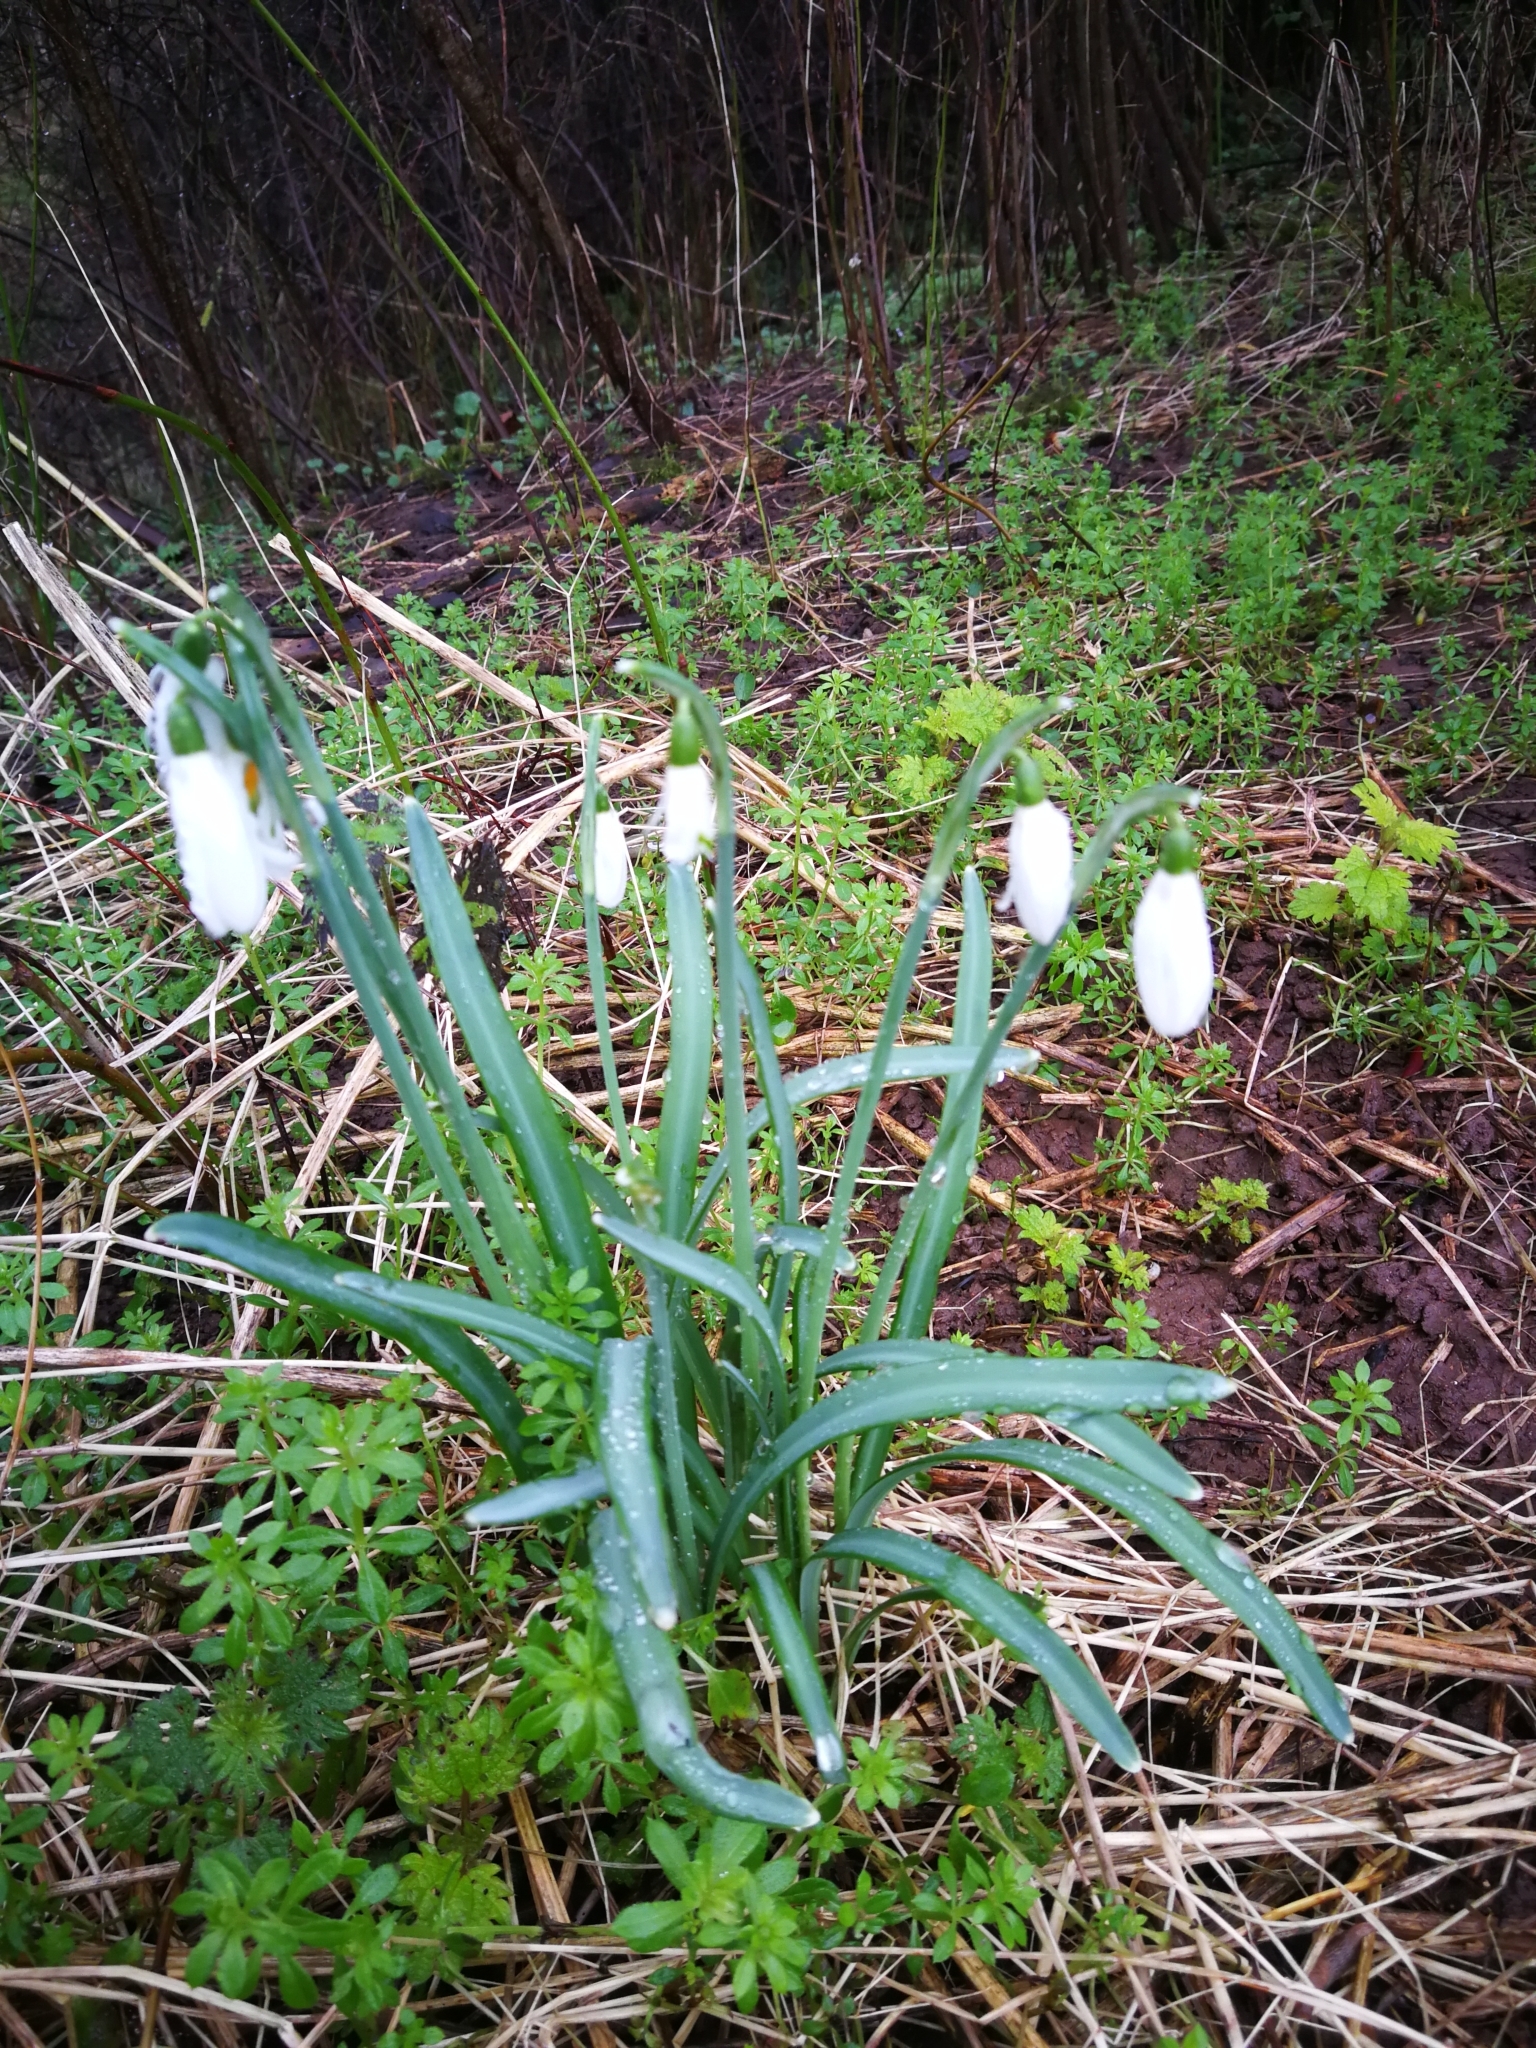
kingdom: Plantae
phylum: Tracheophyta
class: Liliopsida
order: Asparagales
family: Amaryllidaceae
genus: Galanthus
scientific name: Galanthus nivalis
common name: Snowdrop
